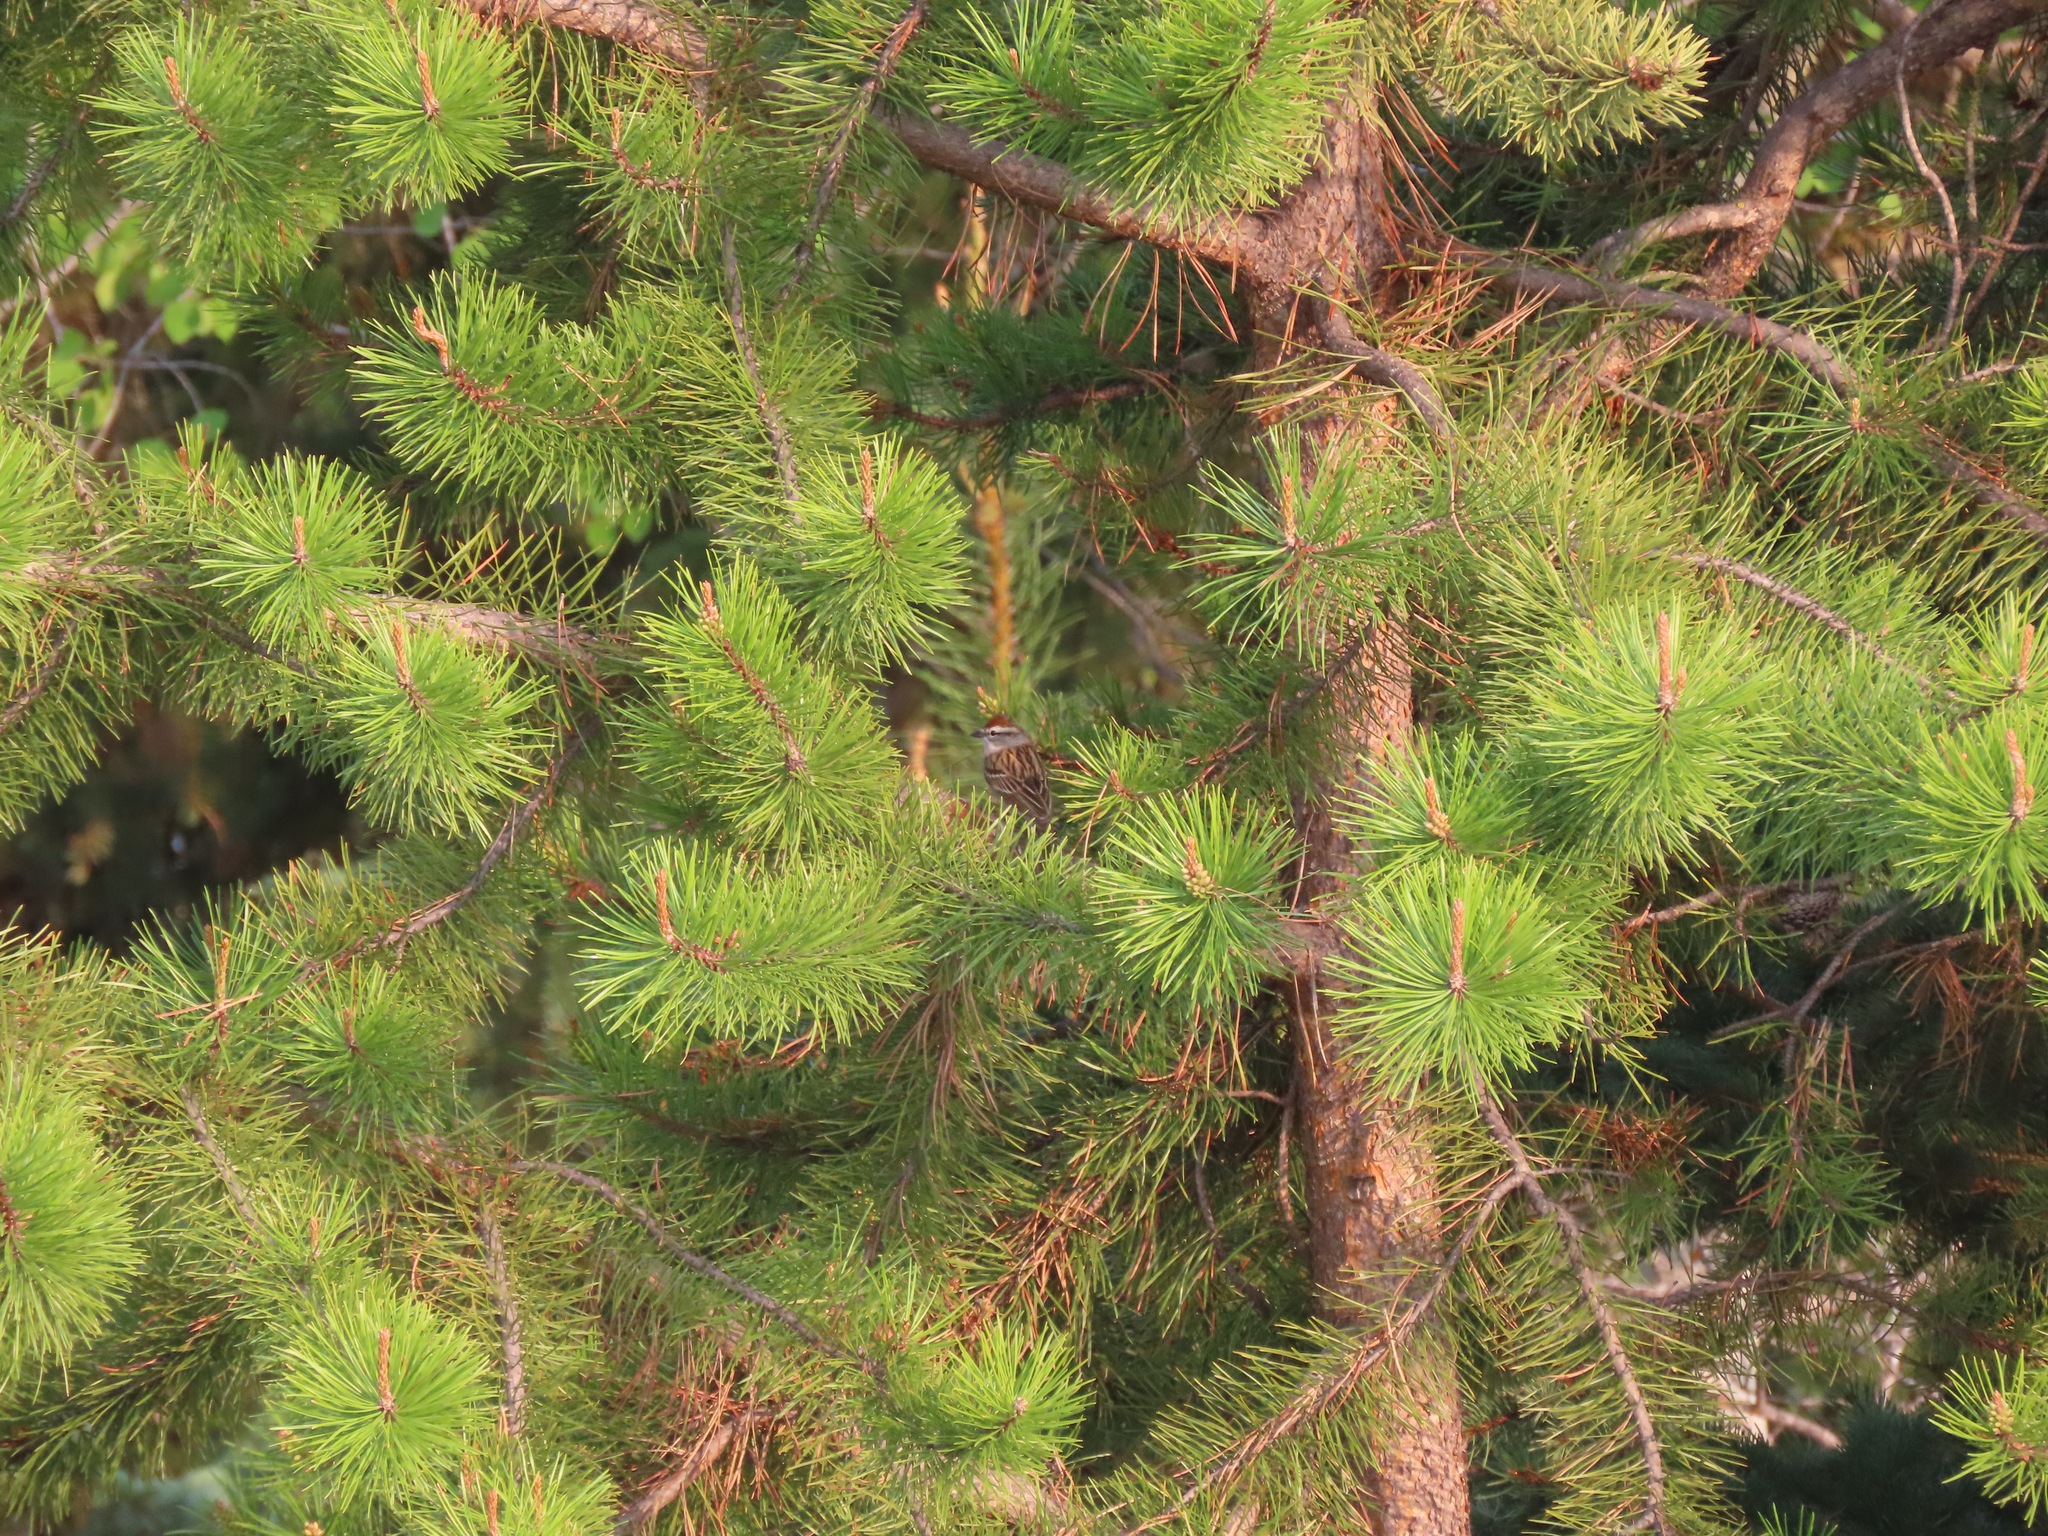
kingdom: Animalia
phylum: Chordata
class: Aves
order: Passeriformes
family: Passerellidae
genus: Spizella
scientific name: Spizella passerina
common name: Chipping sparrow
